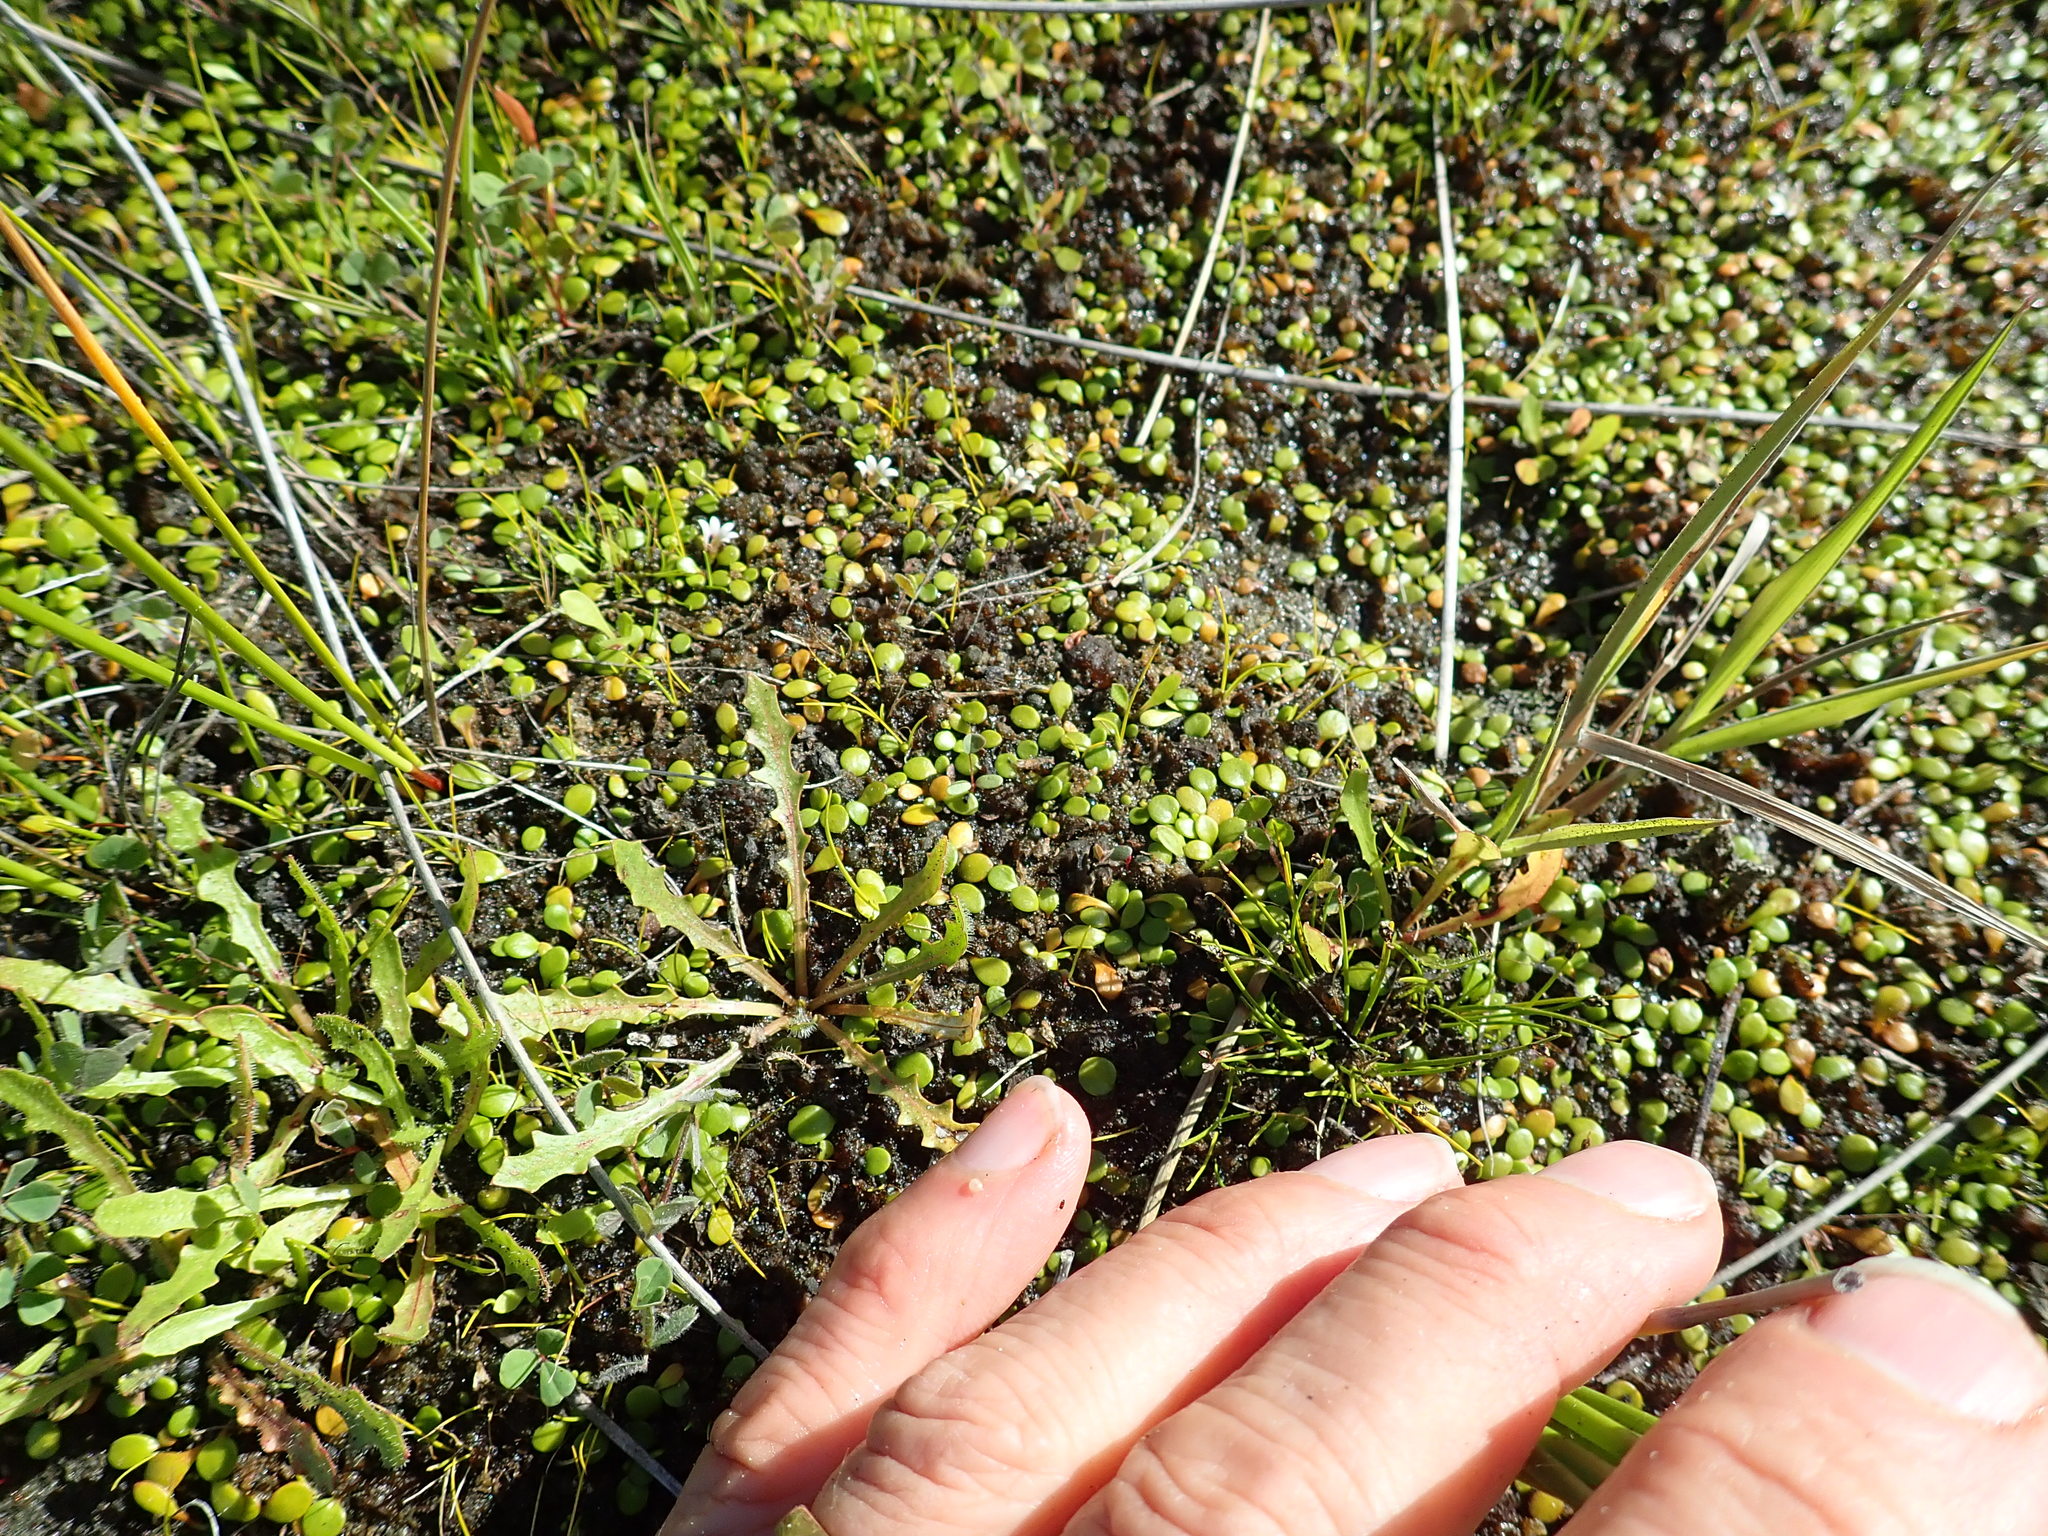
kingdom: Plantae
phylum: Tracheophyta
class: Magnoliopsida
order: Asterales
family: Goodeniaceae
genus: Goodenia
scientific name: Goodenia heenanii
